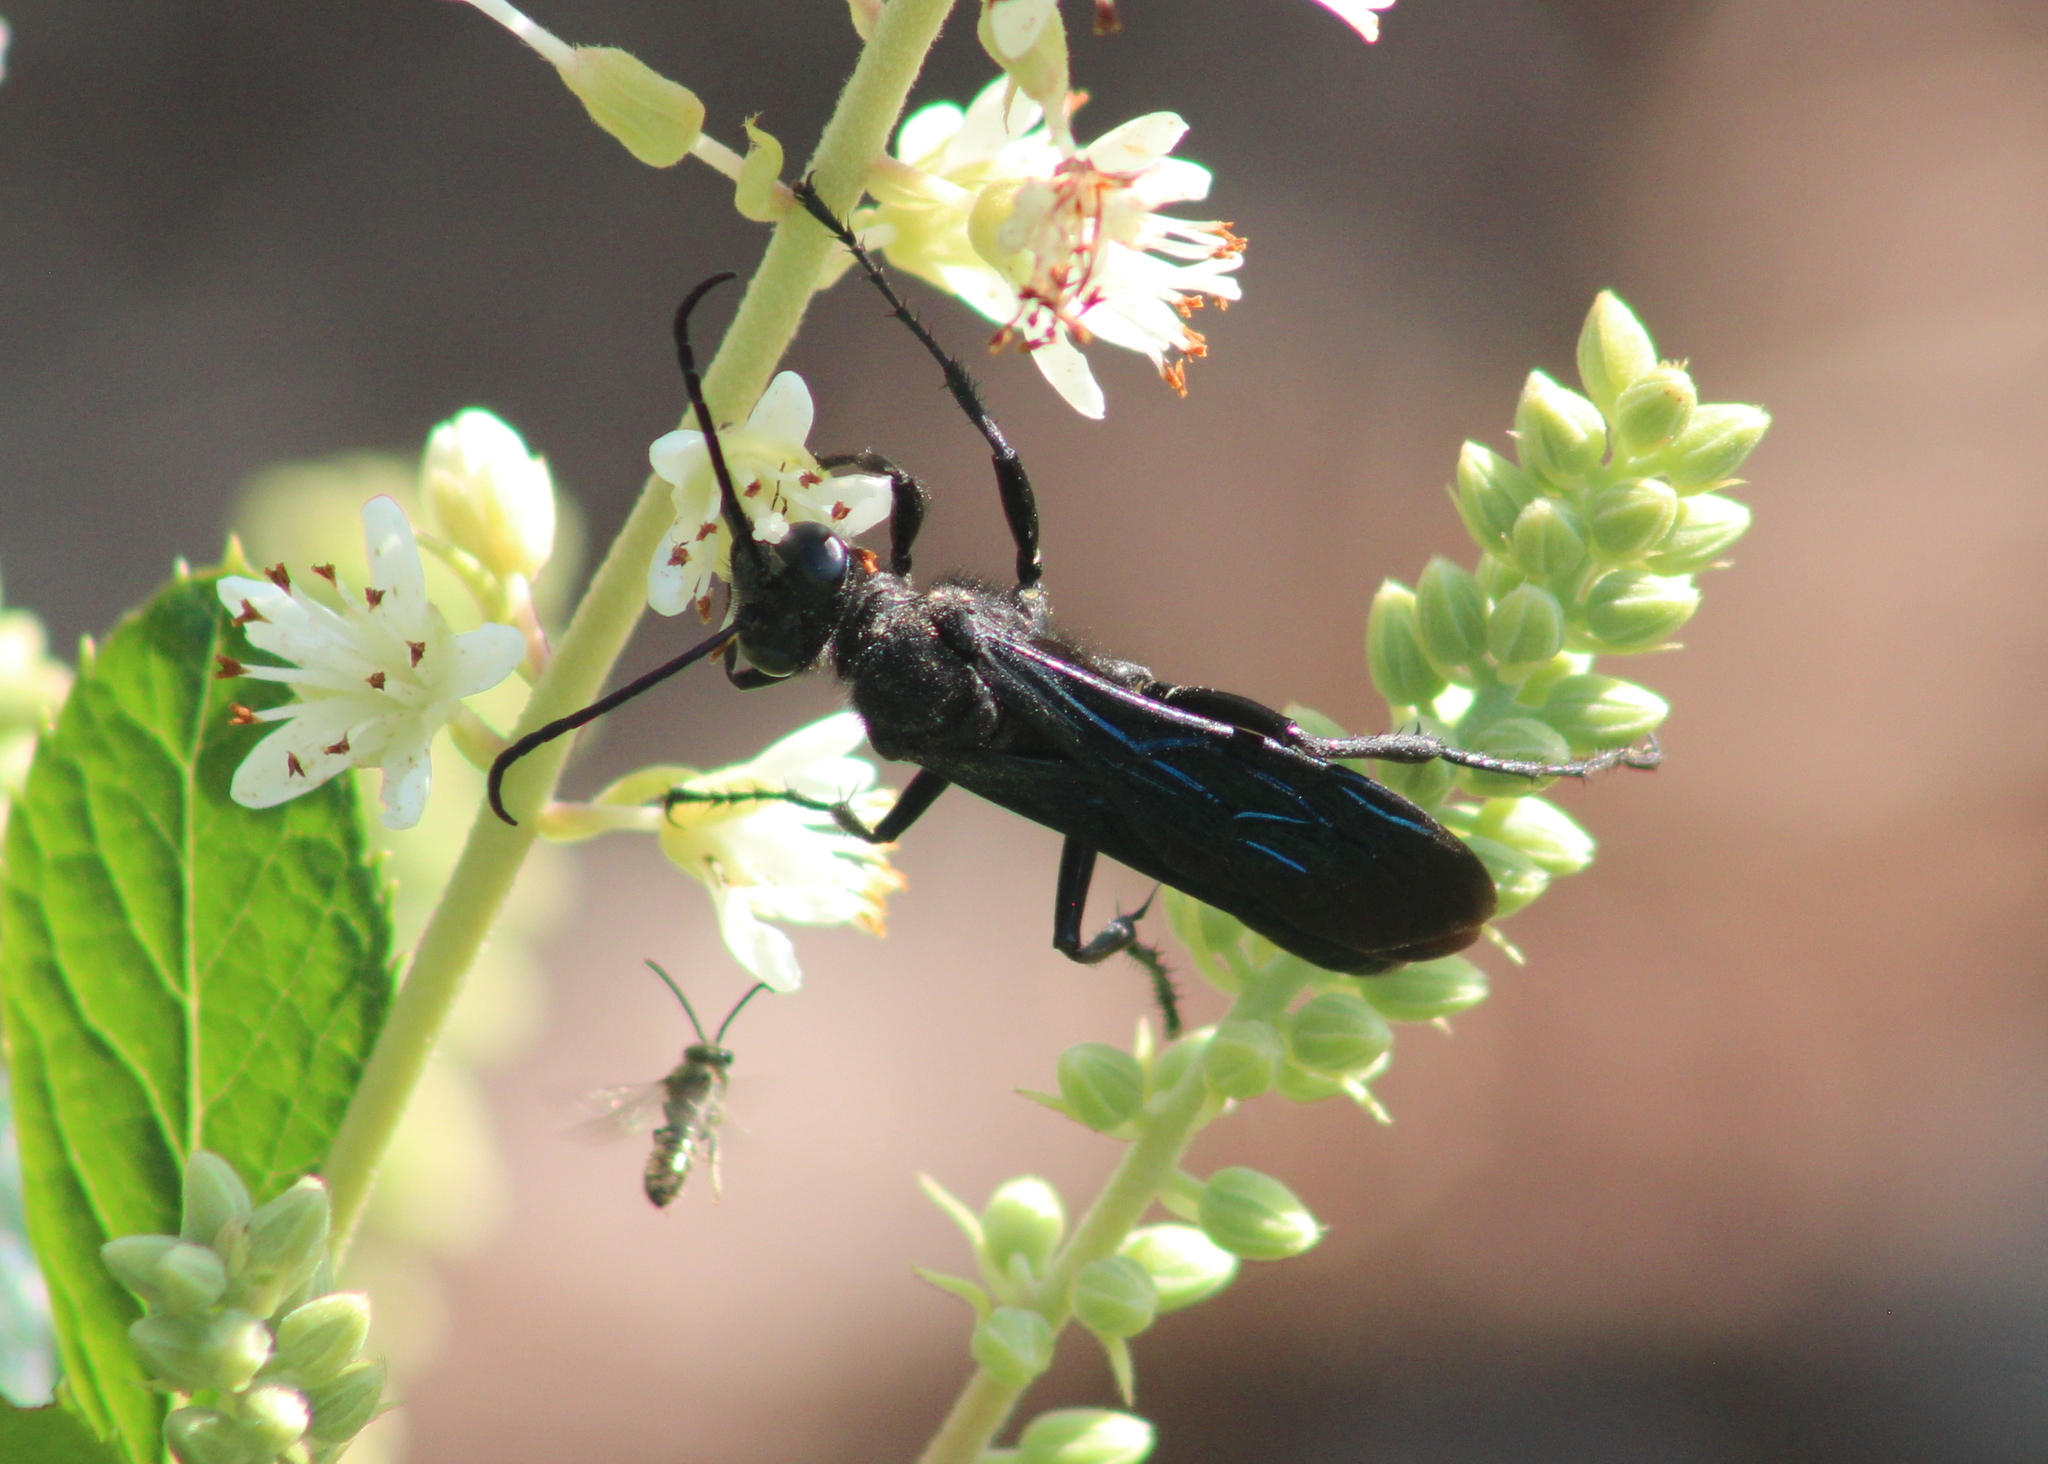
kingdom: Animalia
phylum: Arthropoda
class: Insecta
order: Hymenoptera
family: Sphecidae
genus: Sphex
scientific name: Sphex pensylvanicus
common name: Great black digger wasp
